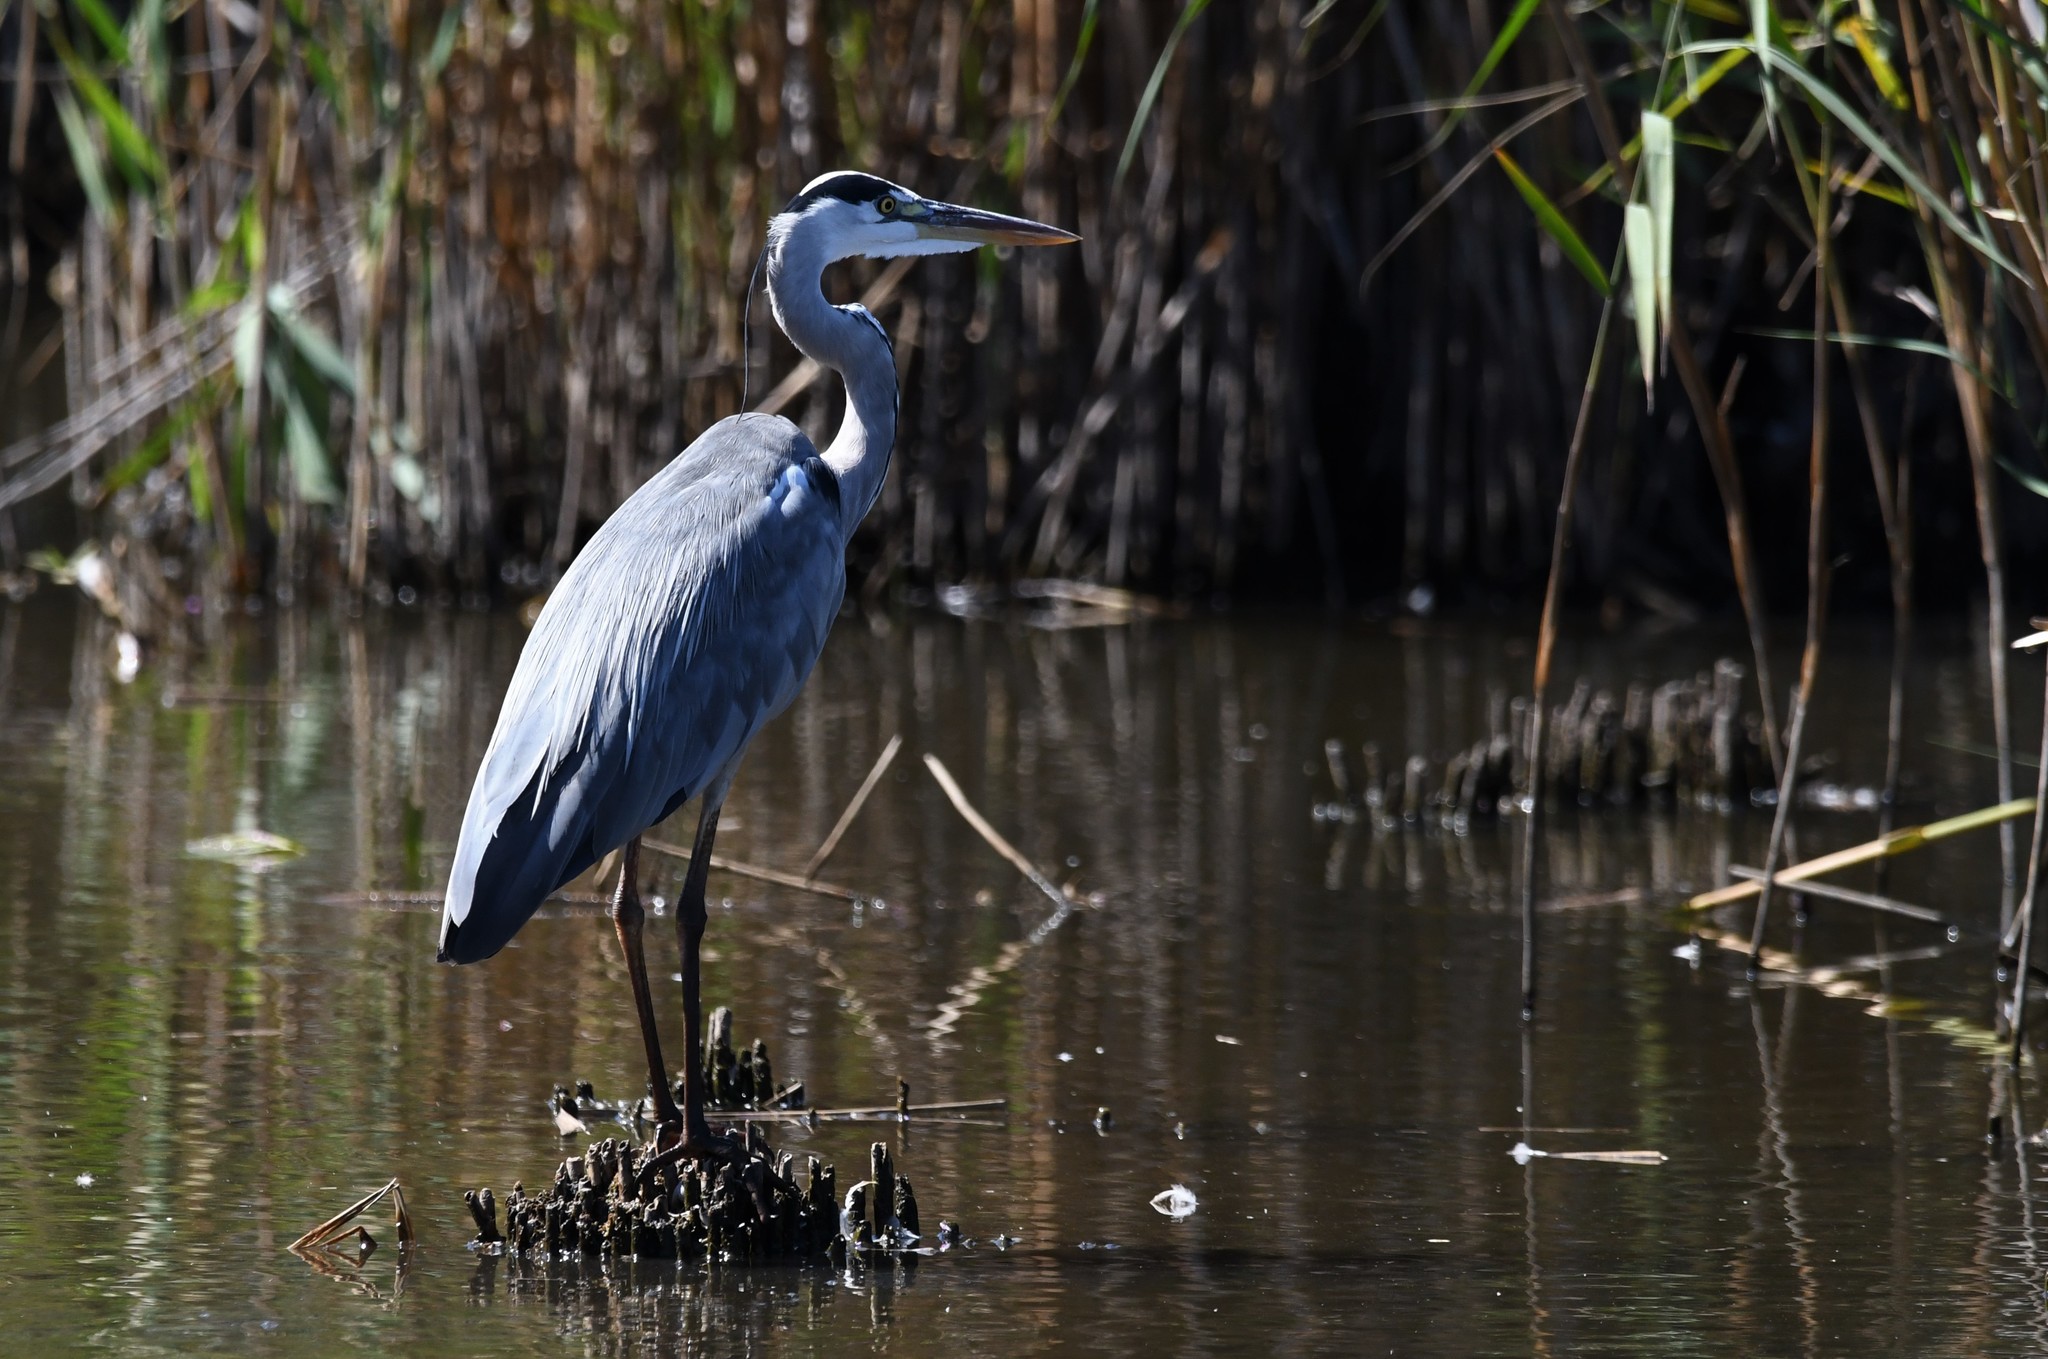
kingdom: Animalia
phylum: Chordata
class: Aves
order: Pelecaniformes
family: Ardeidae
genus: Ardea
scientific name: Ardea cinerea
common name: Grey heron
